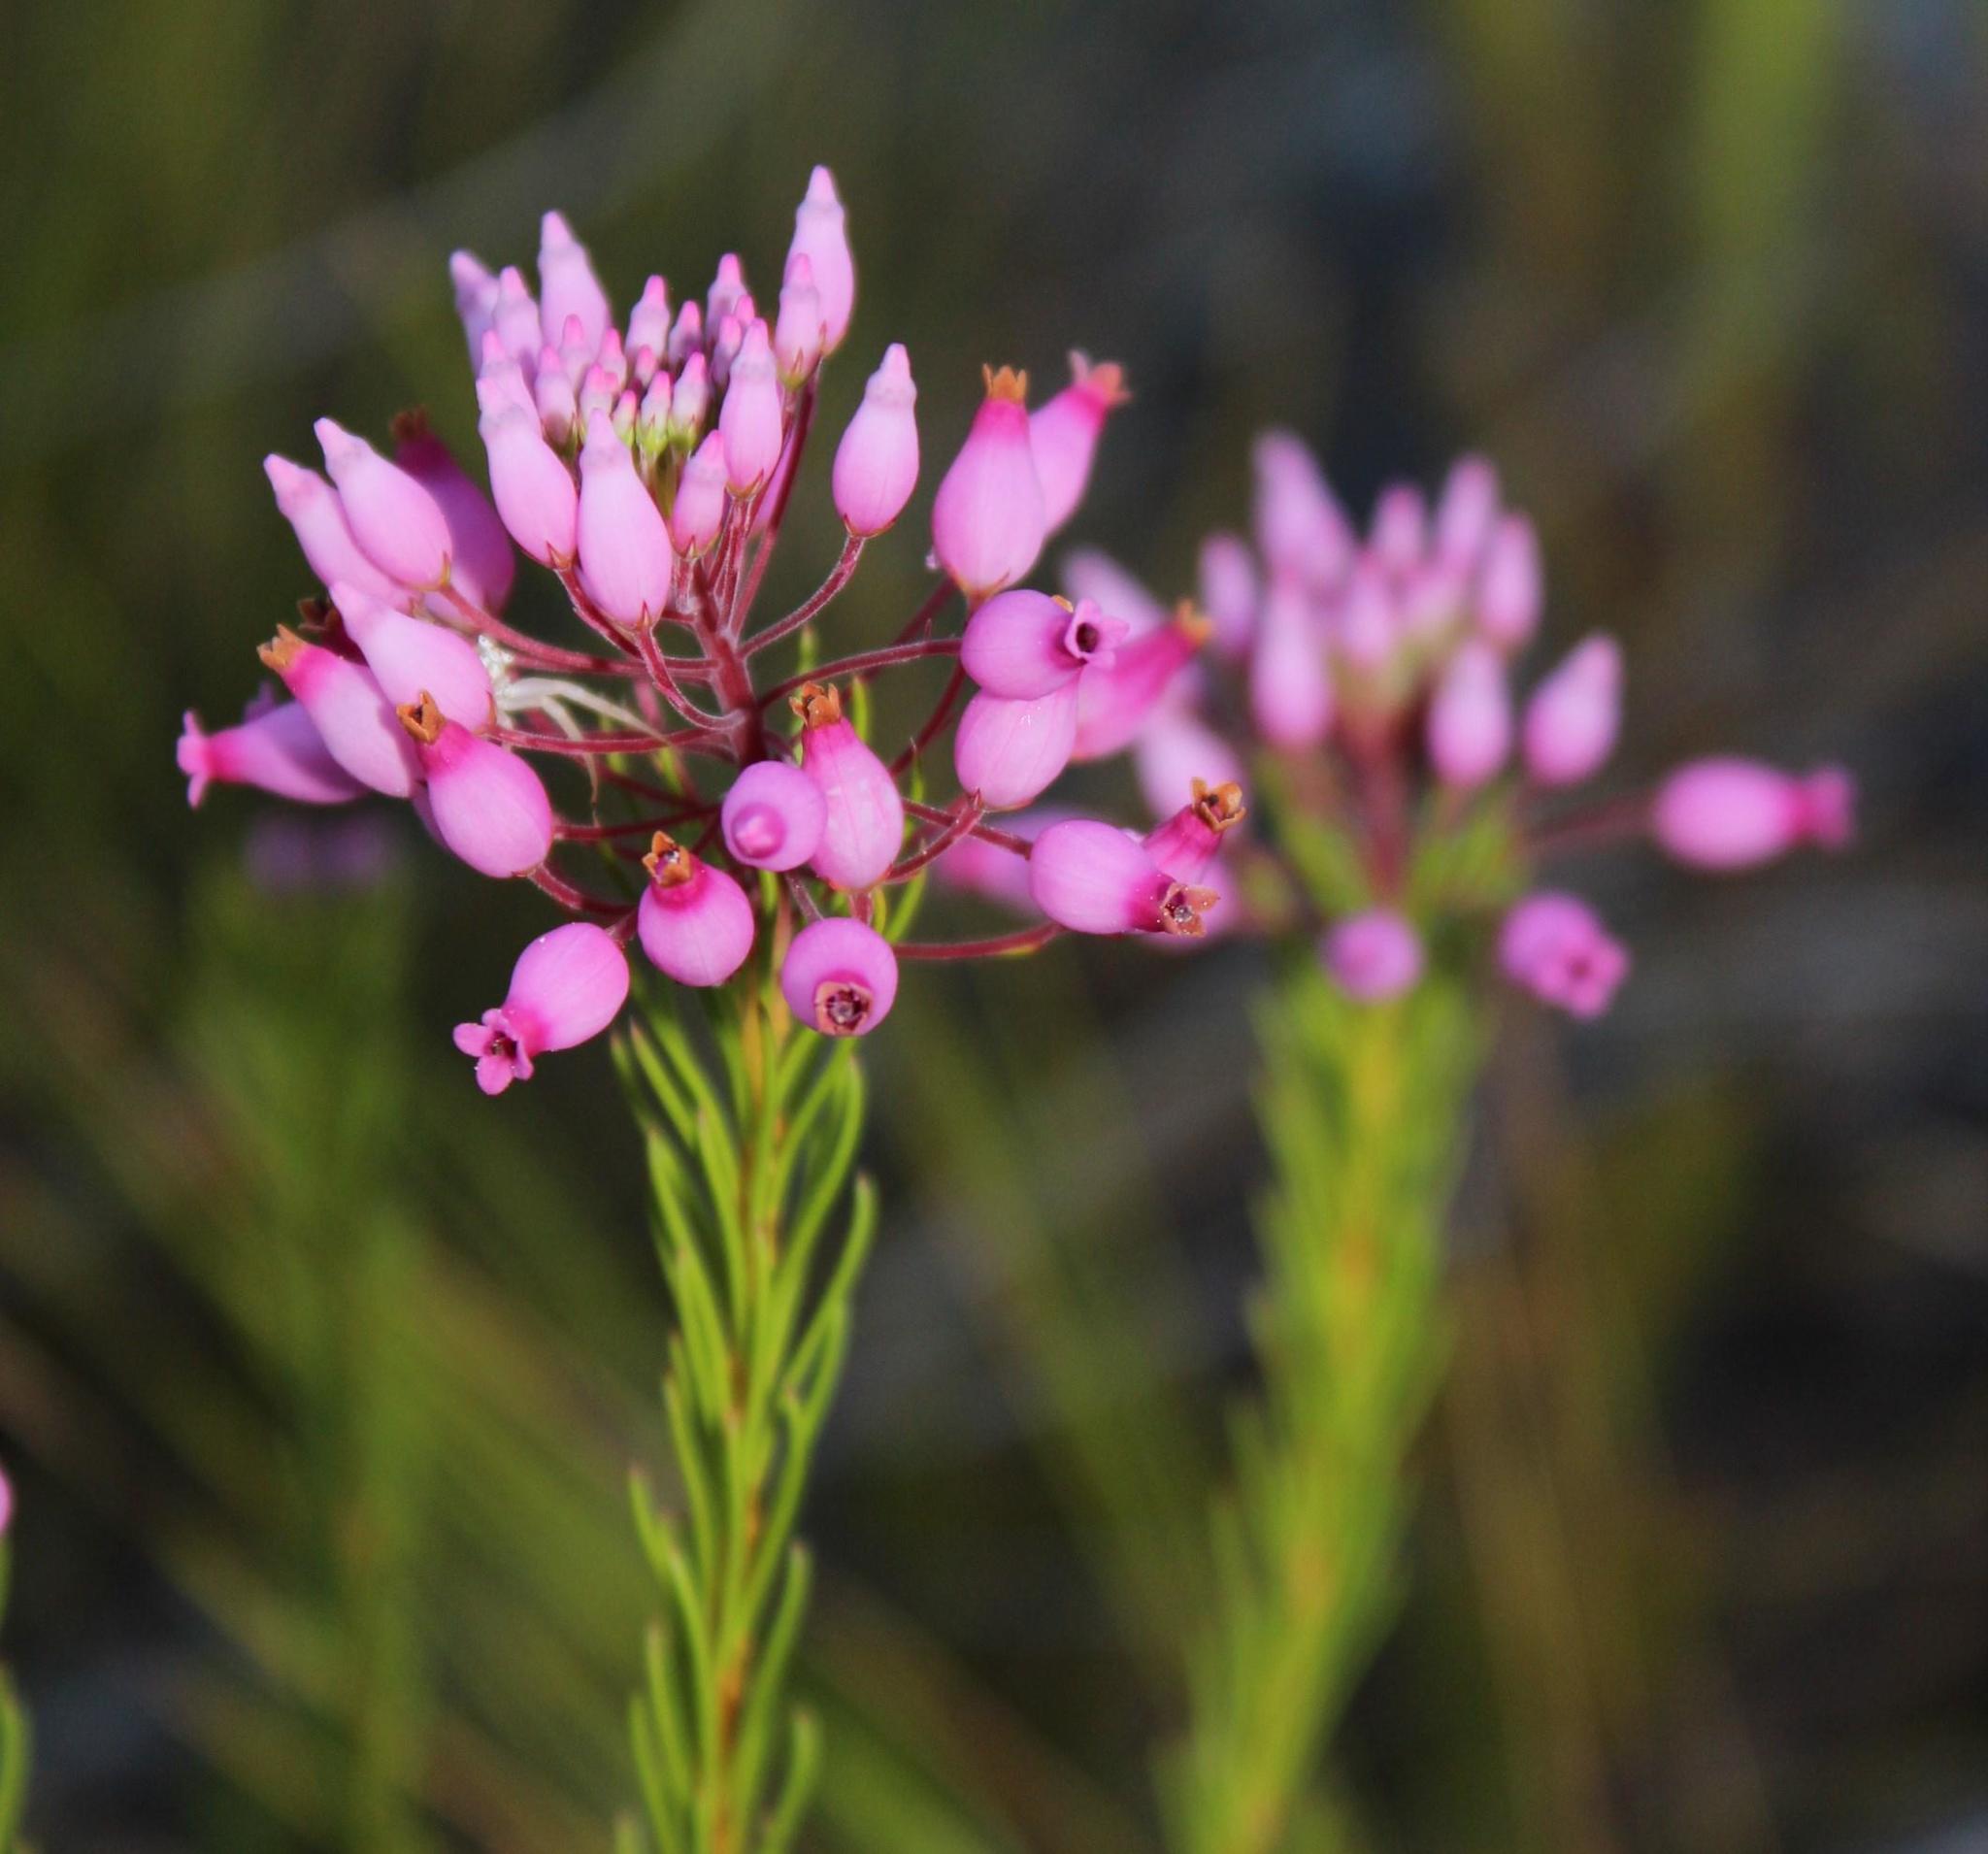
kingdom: Plantae
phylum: Tracheophyta
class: Magnoliopsida
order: Ericales
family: Ericaceae
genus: Erica
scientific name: Erica inflata
